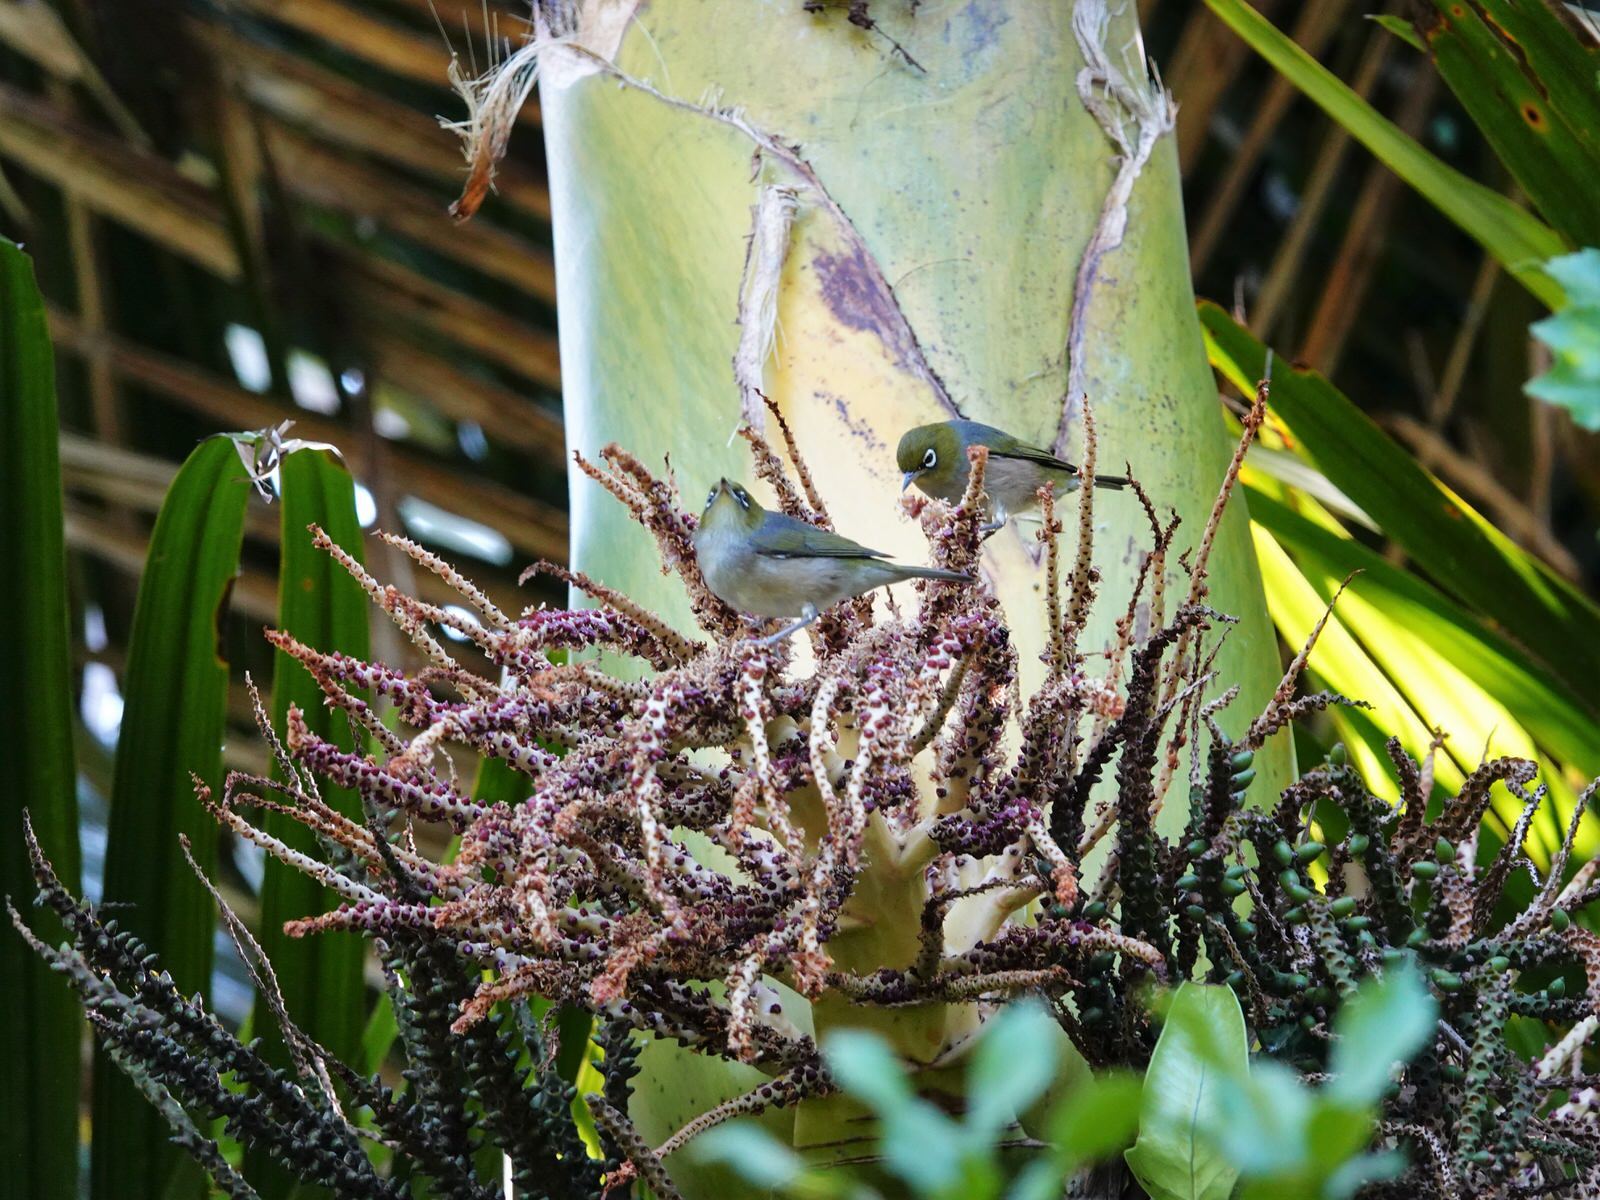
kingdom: Animalia
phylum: Chordata
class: Aves
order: Passeriformes
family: Zosteropidae
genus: Zosterops
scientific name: Zosterops lateralis
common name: Silvereye
